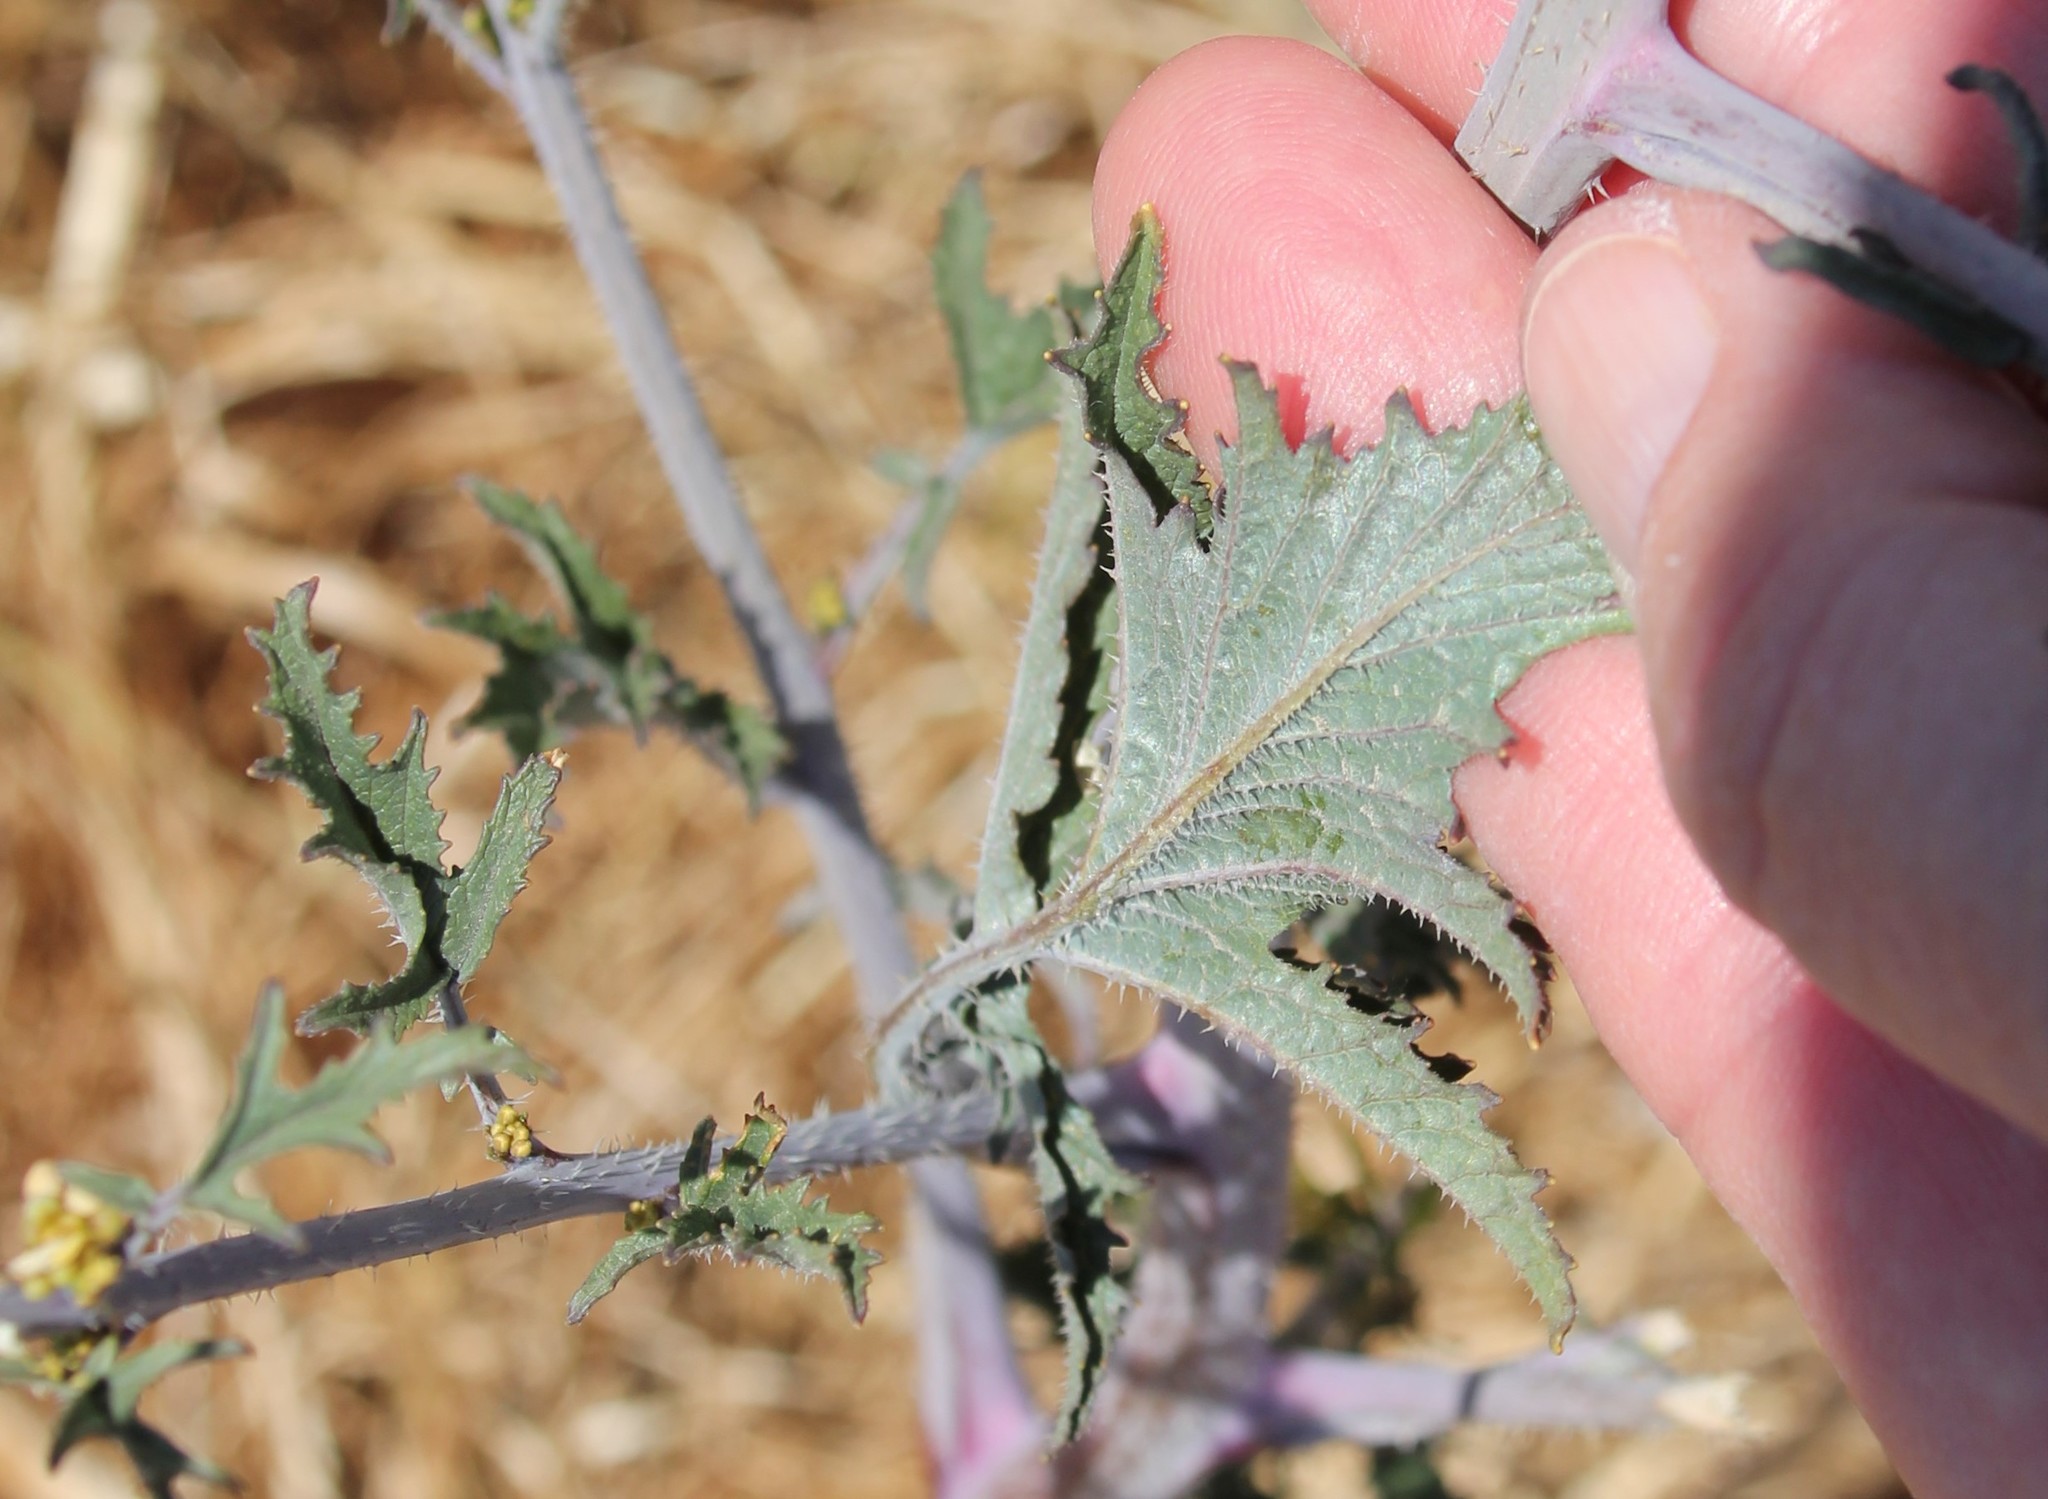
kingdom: Plantae
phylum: Tracheophyta
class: Magnoliopsida
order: Brassicales
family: Brassicaceae
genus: Brassica
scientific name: Brassica nigra
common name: Black mustard
